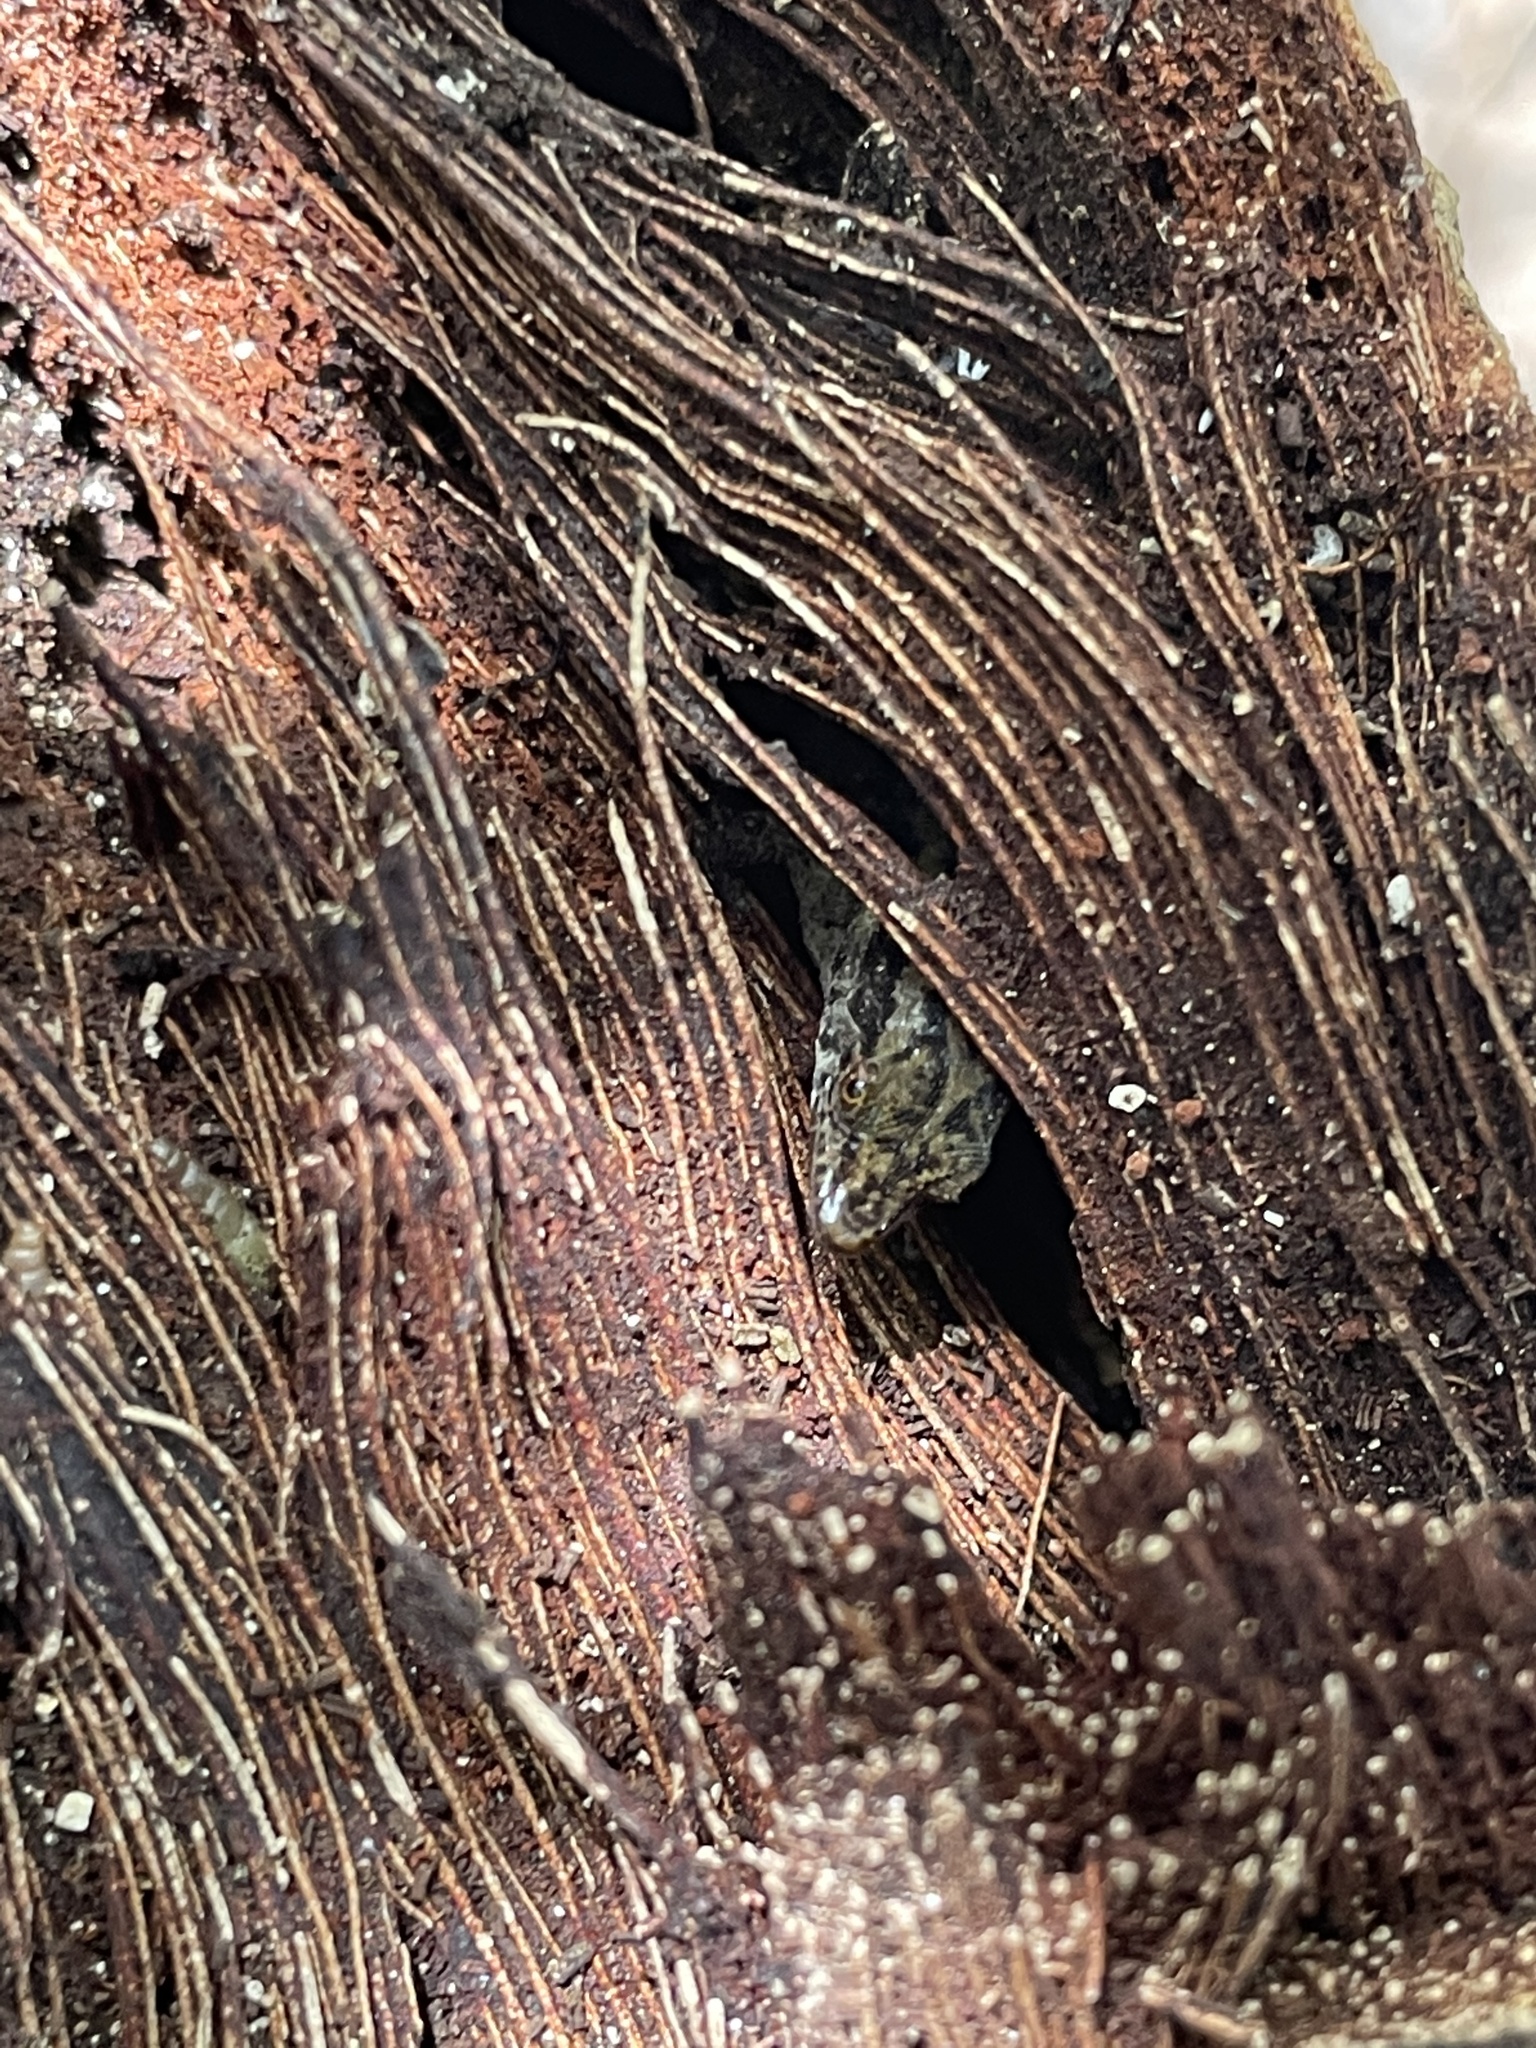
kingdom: Animalia
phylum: Chordata
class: Squamata
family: Sphaerodactylidae
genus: Sphaerodactylus
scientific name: Sphaerodactylus macrolepis
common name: Big-scaled least gecko
